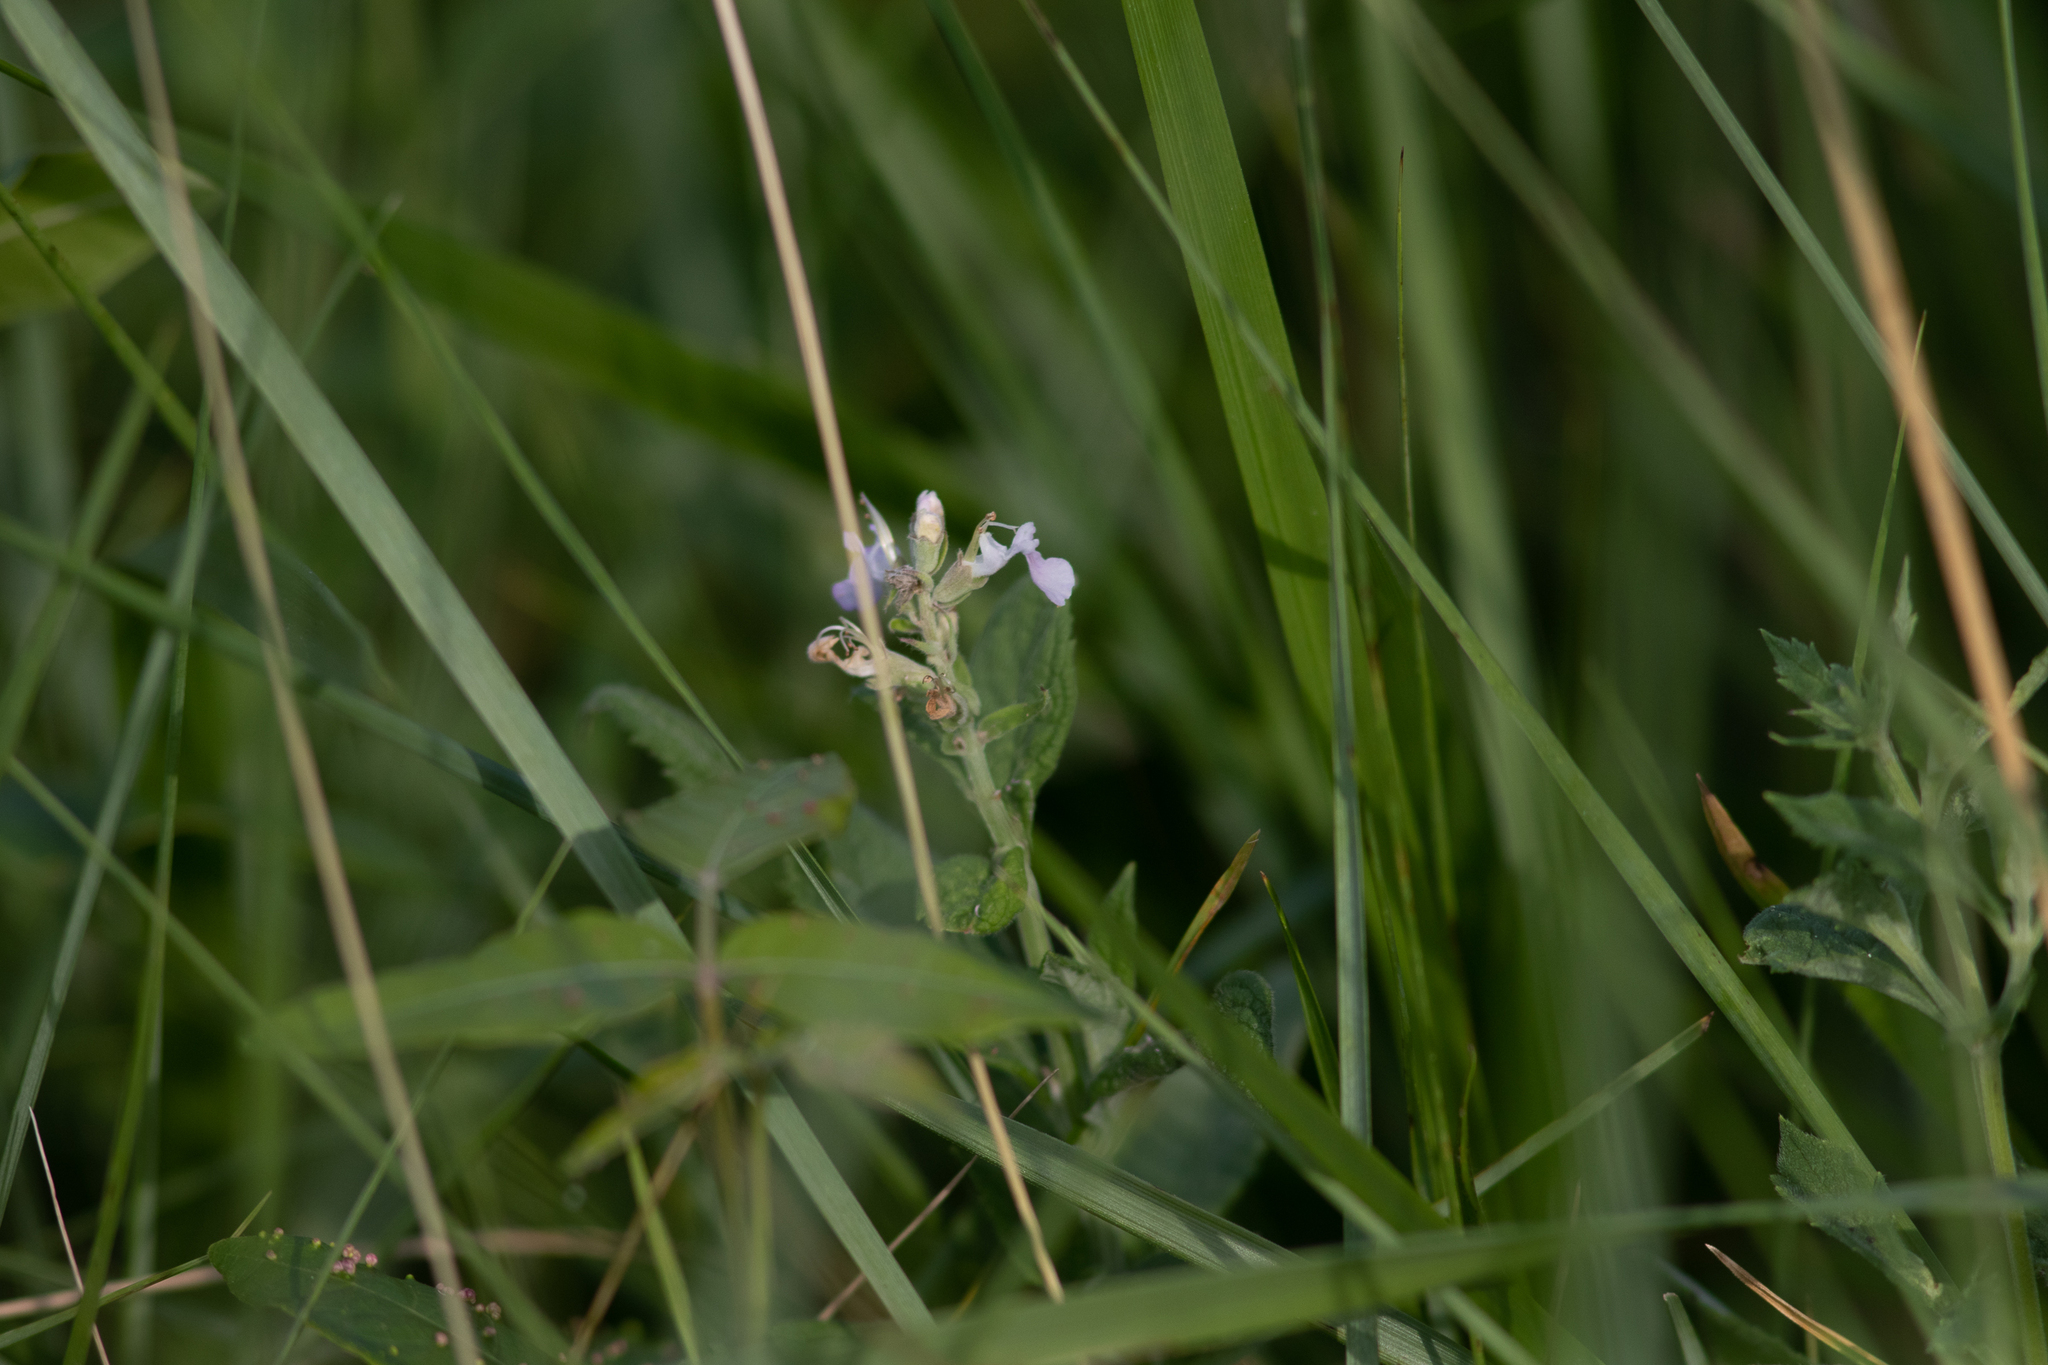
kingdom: Plantae
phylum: Tracheophyta
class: Magnoliopsida
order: Lamiales
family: Lamiaceae
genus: Teucrium
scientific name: Teucrium canadense
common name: American germander
